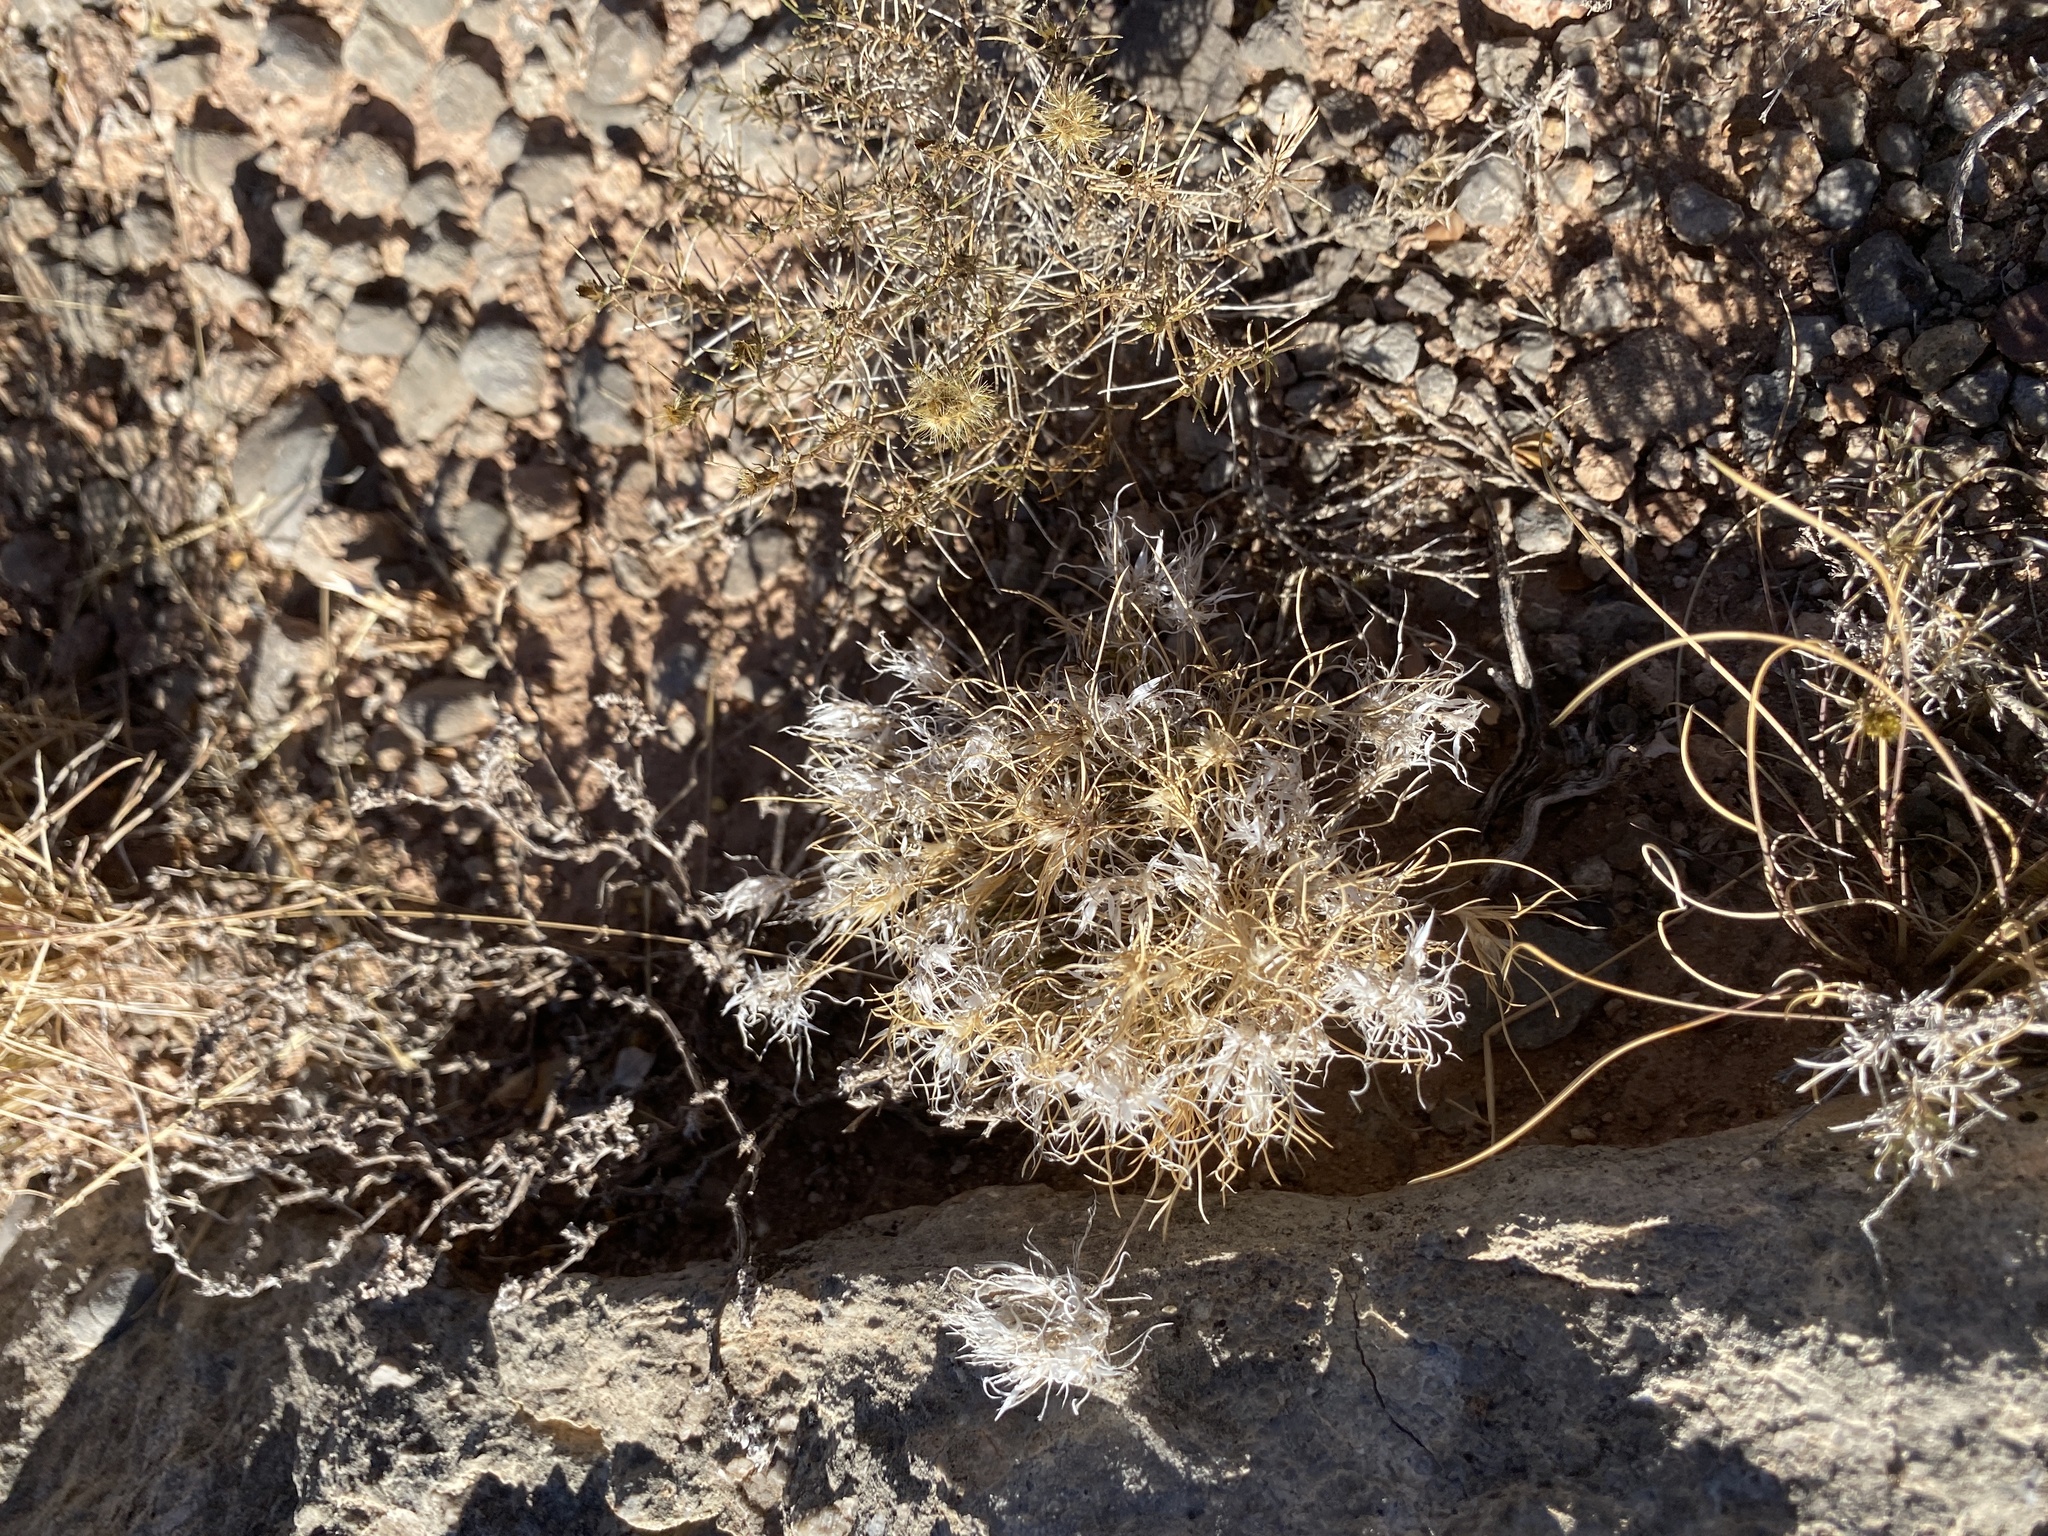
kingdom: Plantae
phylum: Tracheophyta
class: Liliopsida
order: Poales
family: Poaceae
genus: Dasyochloa
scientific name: Dasyochloa pulchella
